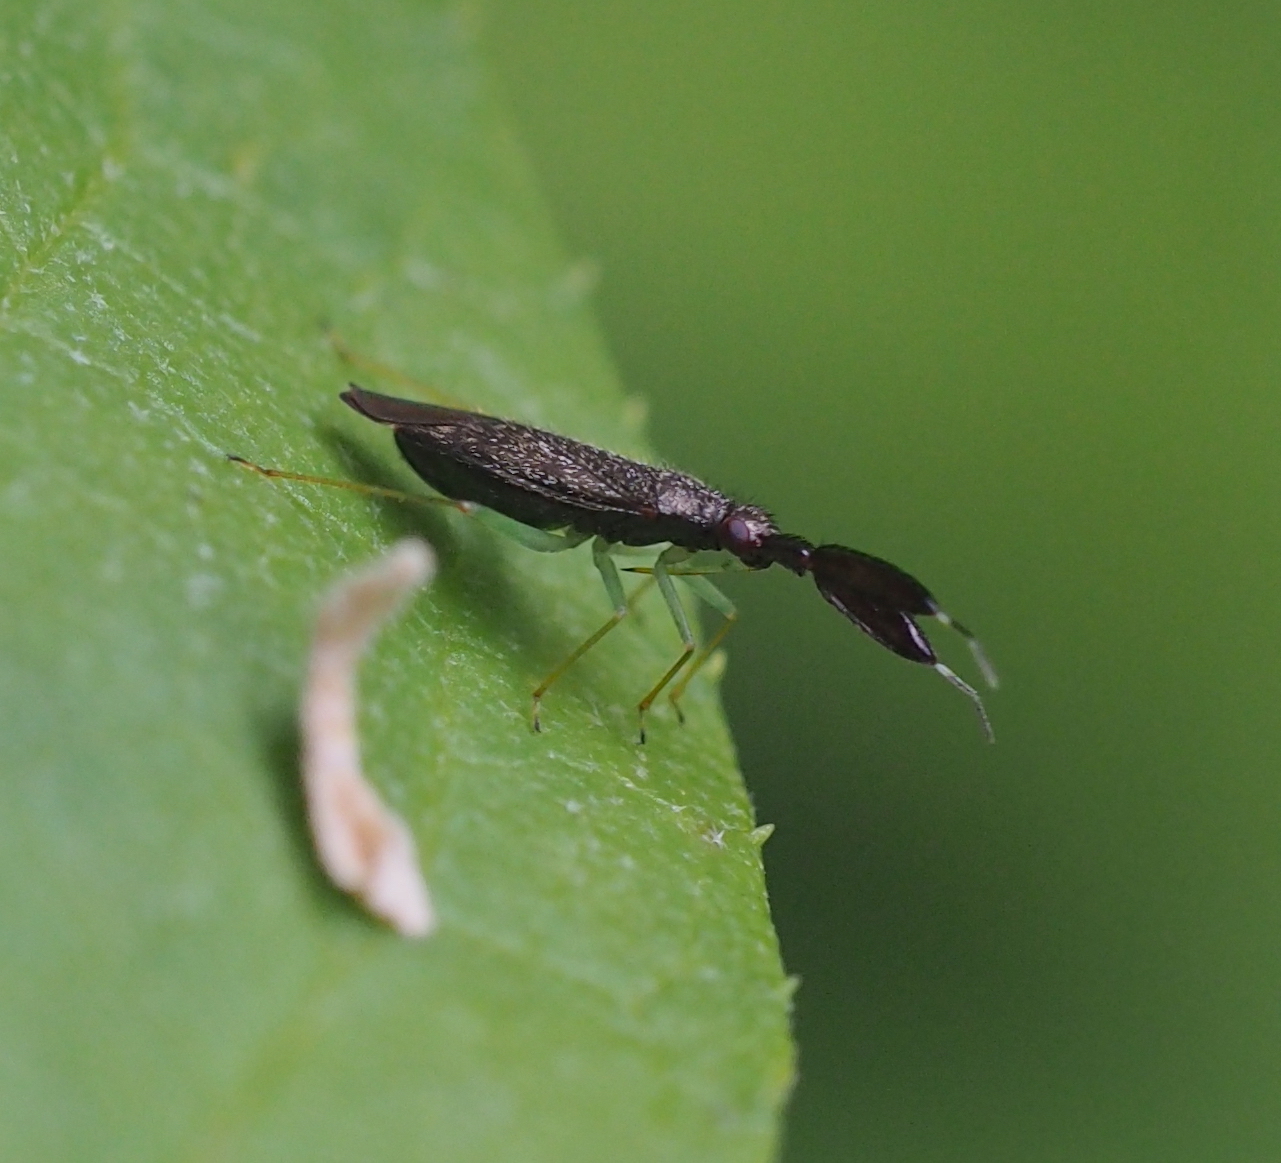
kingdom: Animalia
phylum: Arthropoda
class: Insecta
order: Hemiptera
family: Miridae
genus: Heterotoma
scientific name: Heterotoma planicornis
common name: Plant bug
